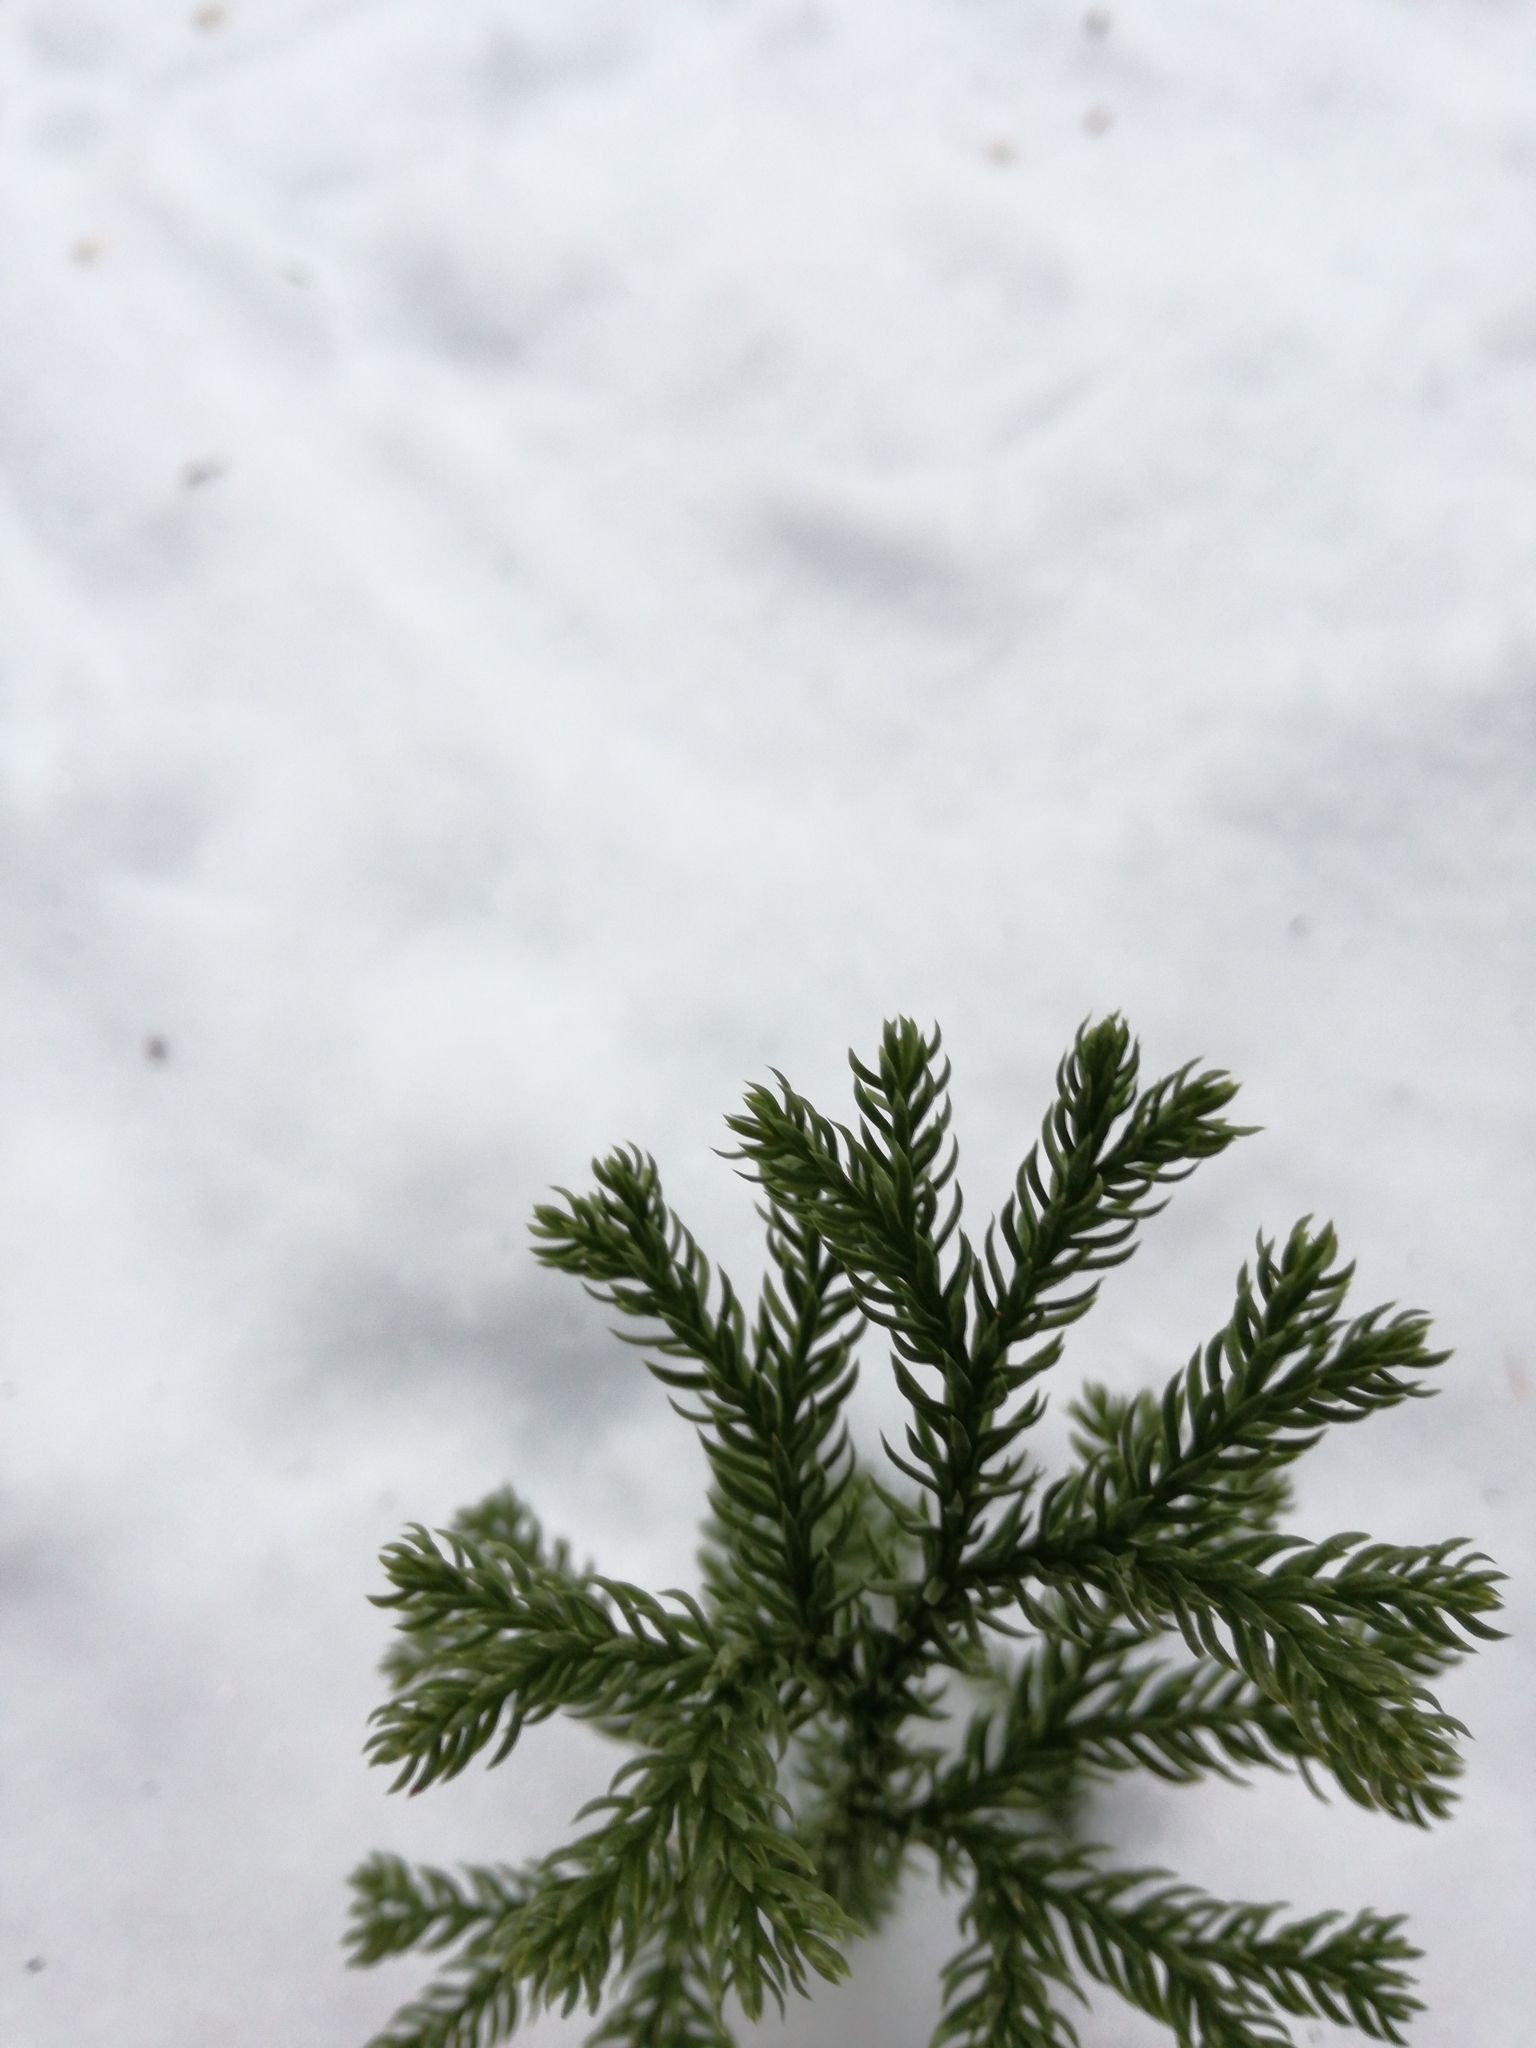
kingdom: Plantae
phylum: Tracheophyta
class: Lycopodiopsida
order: Lycopodiales
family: Lycopodiaceae
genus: Dendrolycopodium
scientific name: Dendrolycopodium dendroideum
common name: Northern tree-clubmoss
